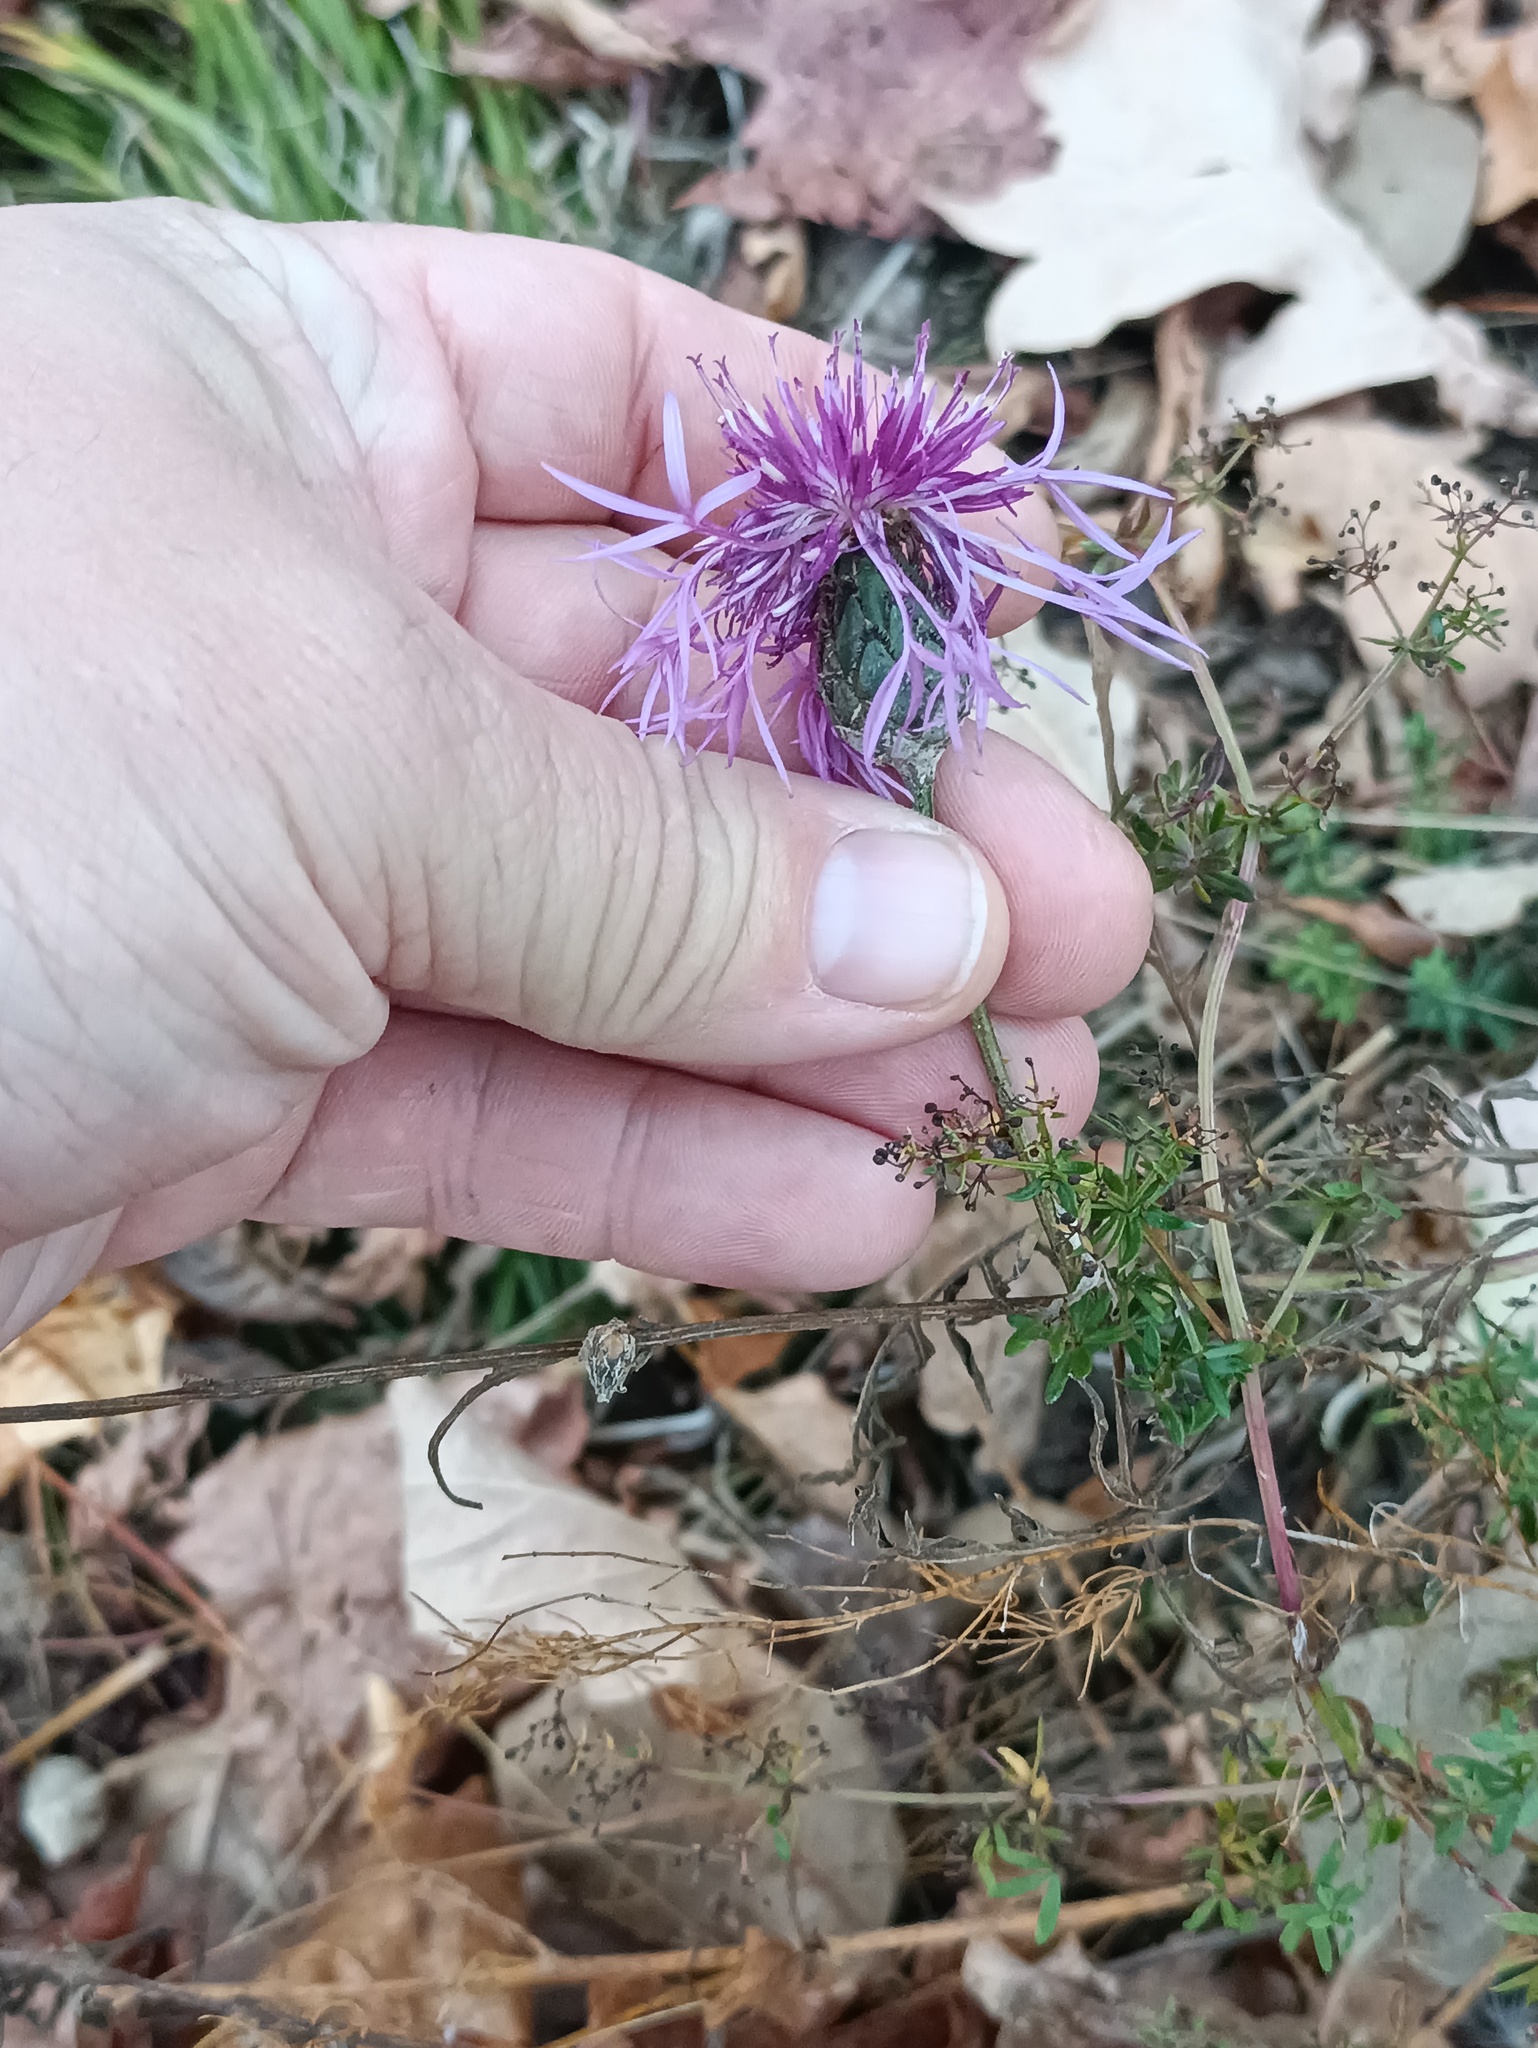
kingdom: Plantae
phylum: Tracheophyta
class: Magnoliopsida
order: Asterales
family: Asteraceae
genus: Centaurea
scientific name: Centaurea scabiosa
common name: Greater knapweed
